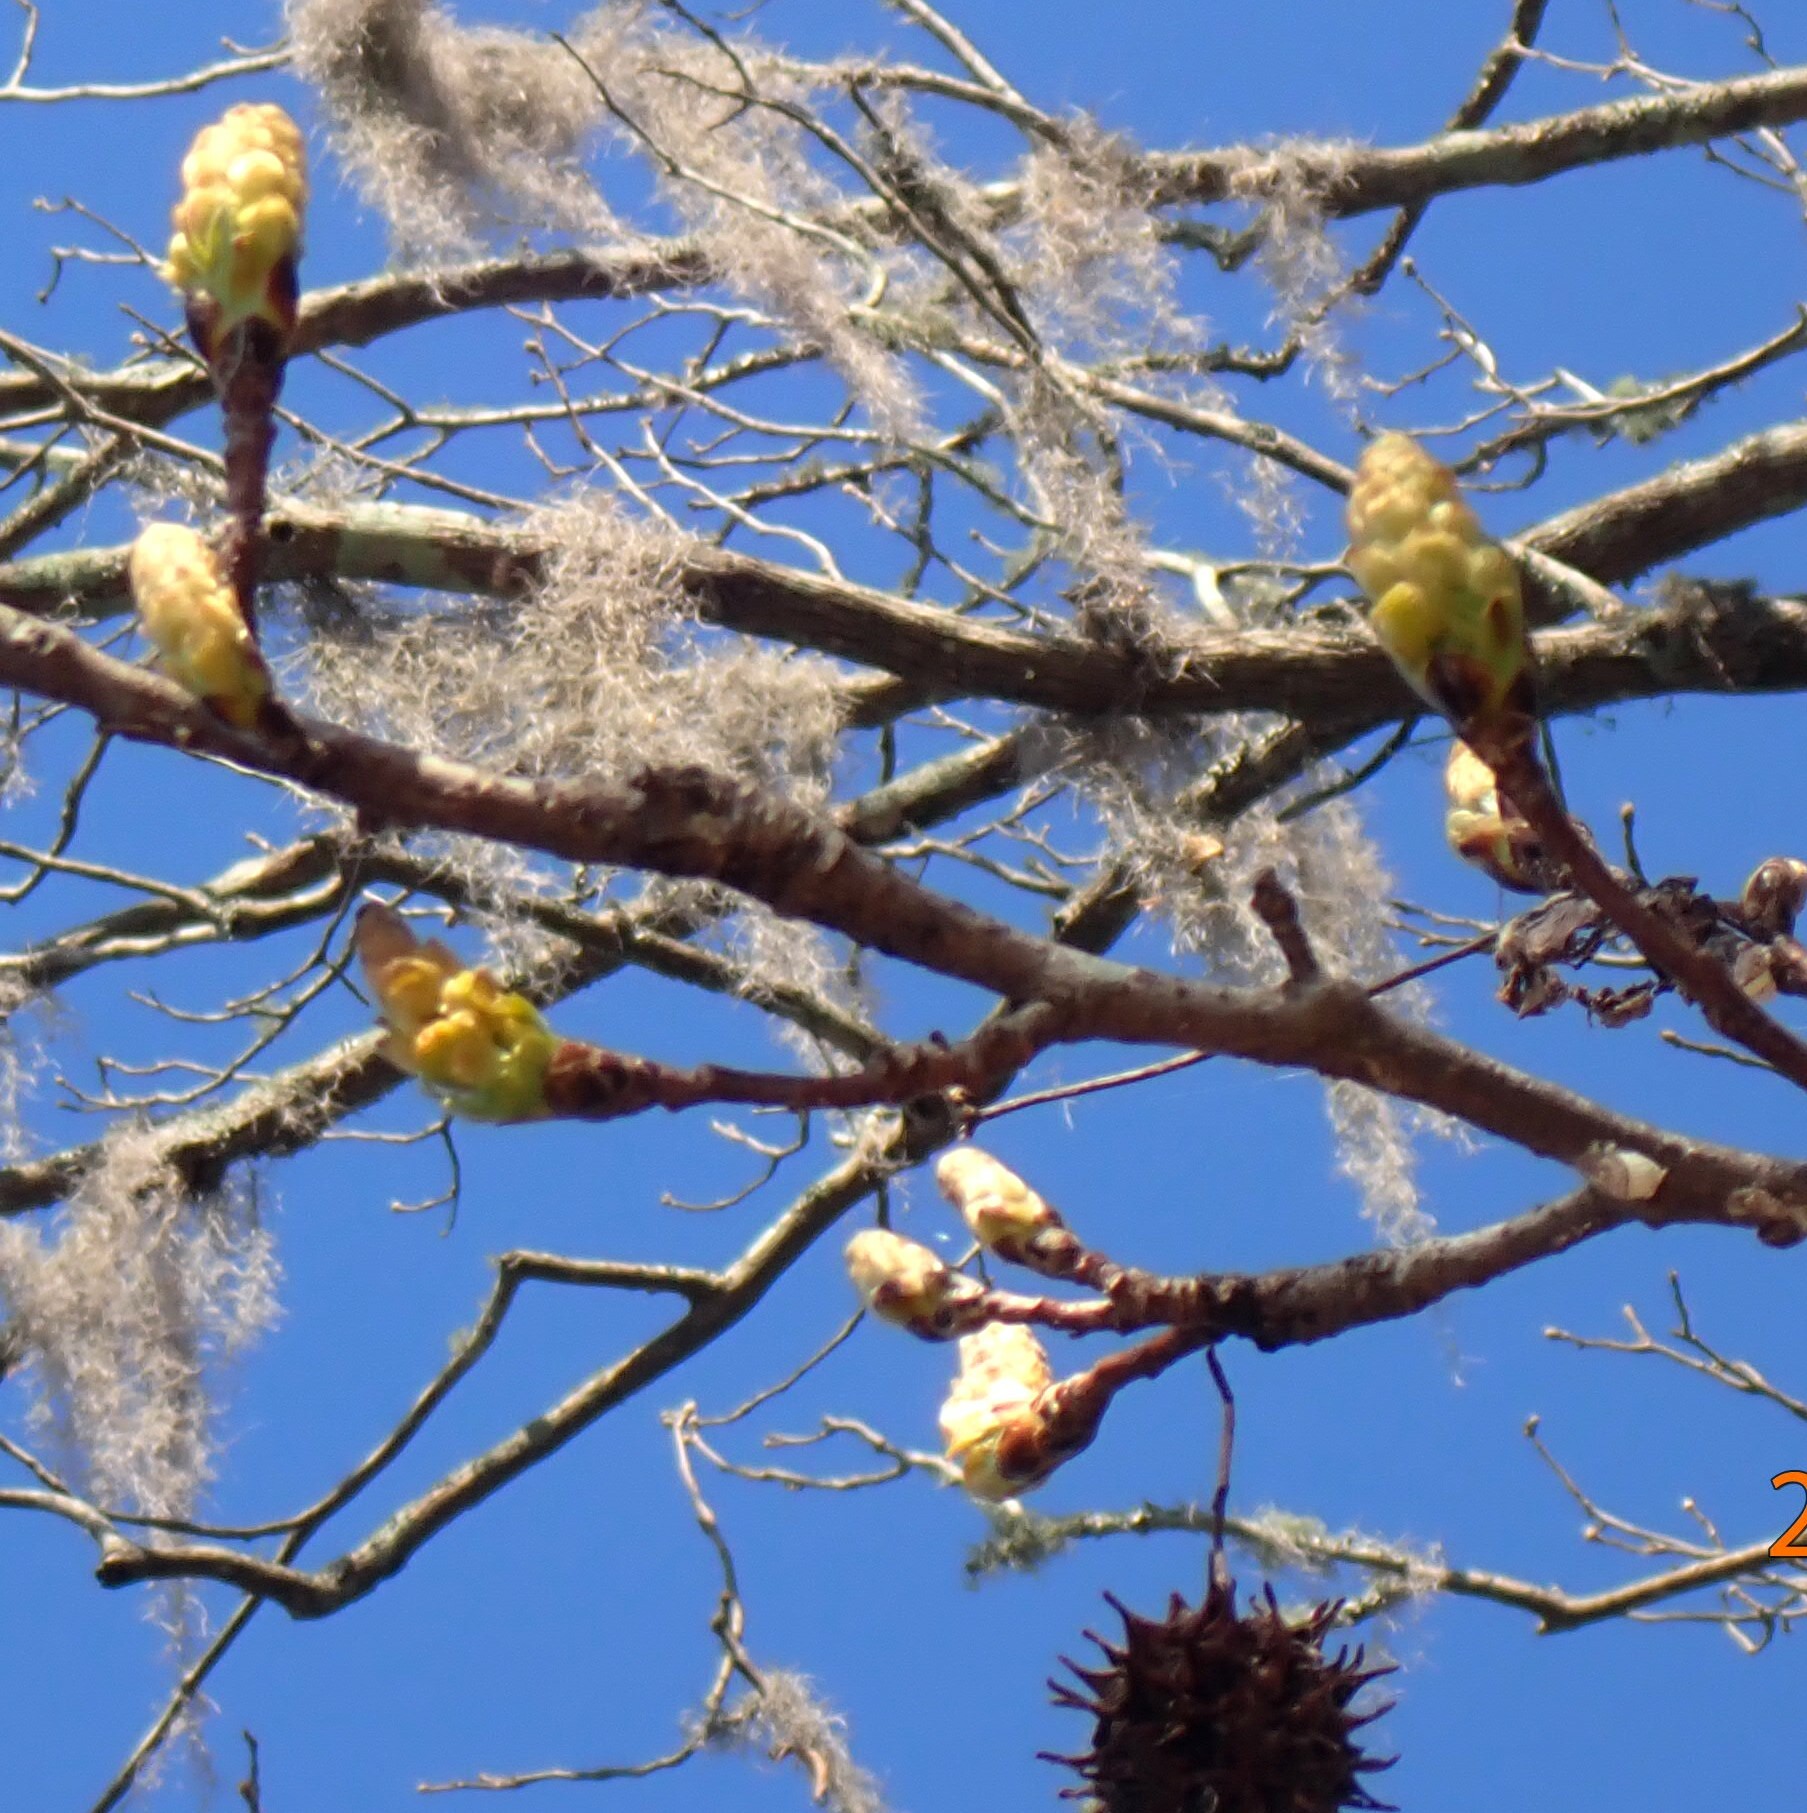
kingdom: Plantae
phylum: Tracheophyta
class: Magnoliopsida
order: Saxifragales
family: Altingiaceae
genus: Liquidambar
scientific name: Liquidambar styraciflua
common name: Sweet gum
